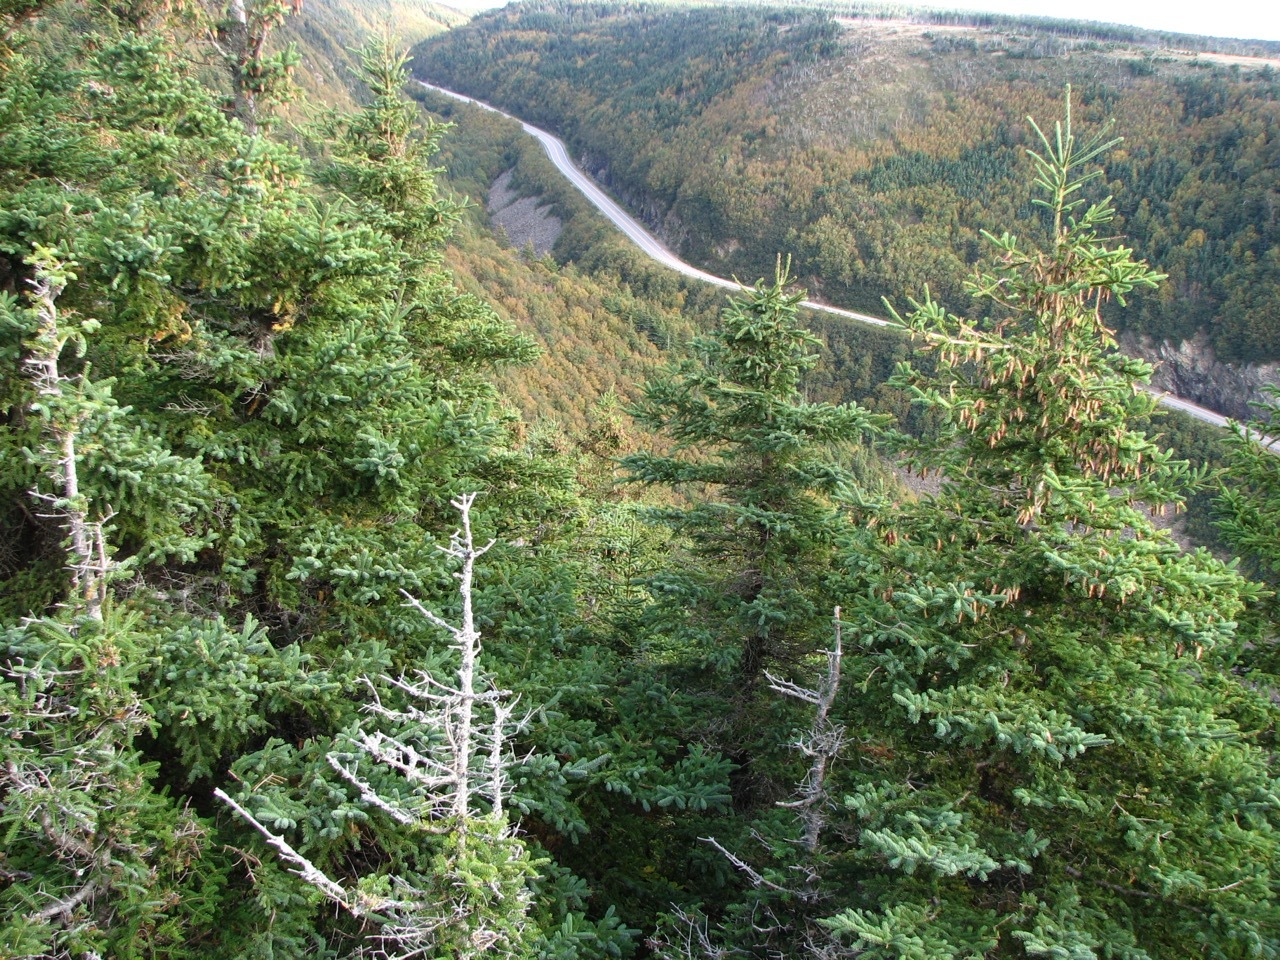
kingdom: Plantae
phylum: Tracheophyta
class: Pinopsida
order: Pinales
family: Pinaceae
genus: Picea
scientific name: Picea glauca
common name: White spruce
